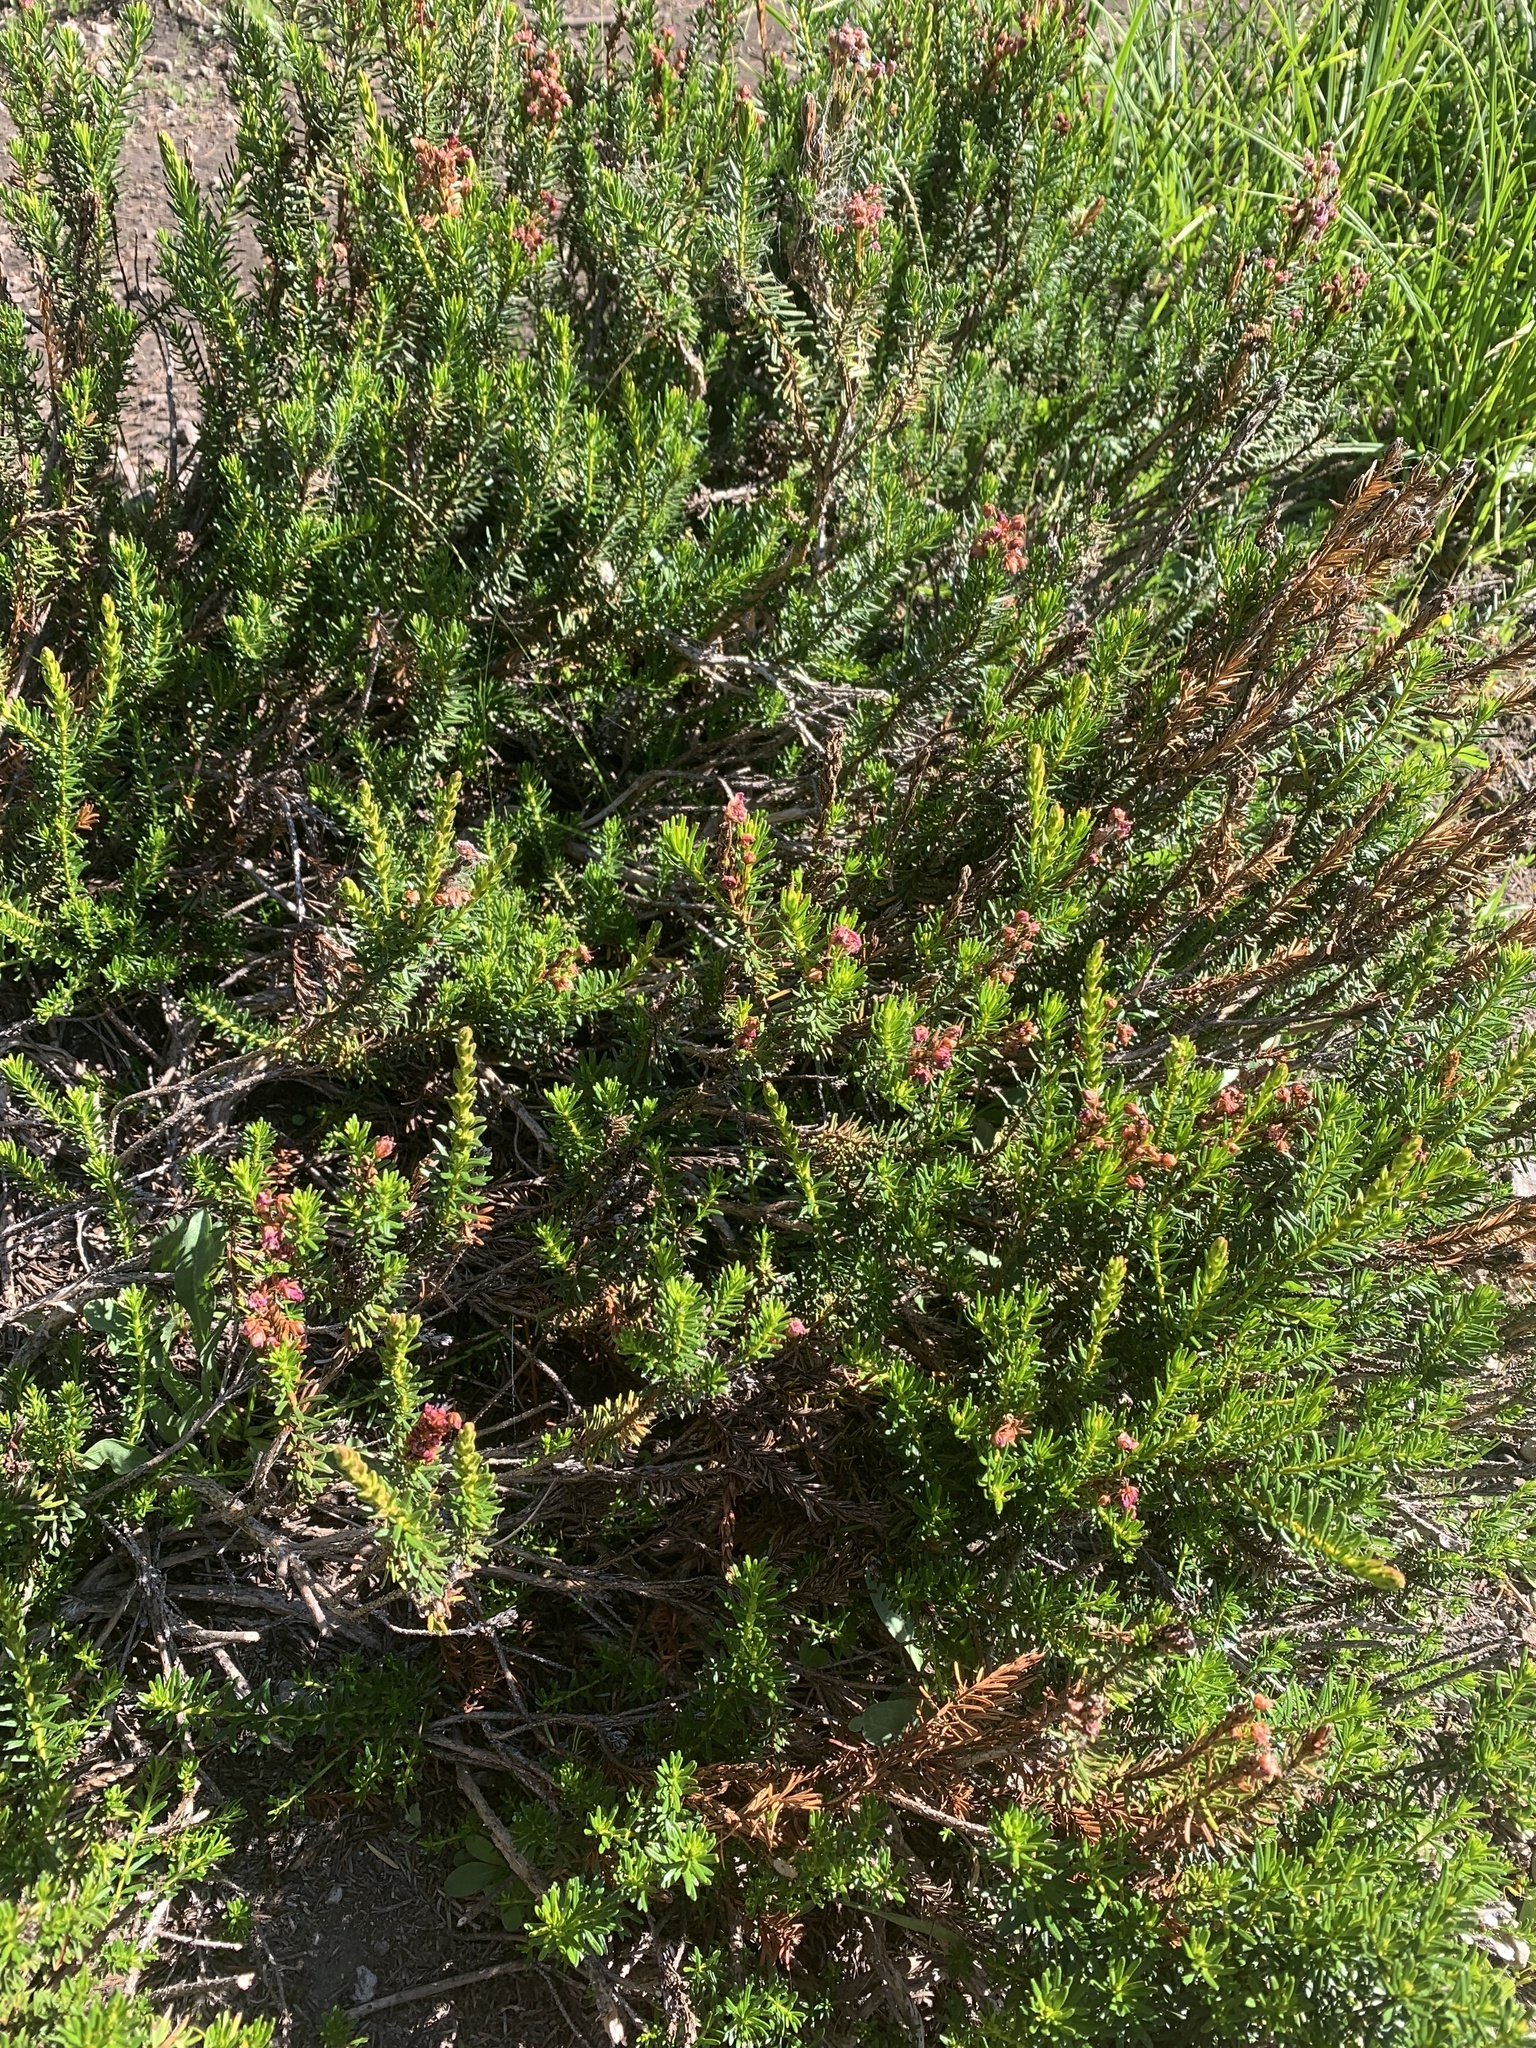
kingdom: Plantae
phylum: Tracheophyta
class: Magnoliopsida
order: Ericales
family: Ericaceae
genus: Phyllodoce
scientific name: Phyllodoce breweri
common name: Brewer's mountain-heather
